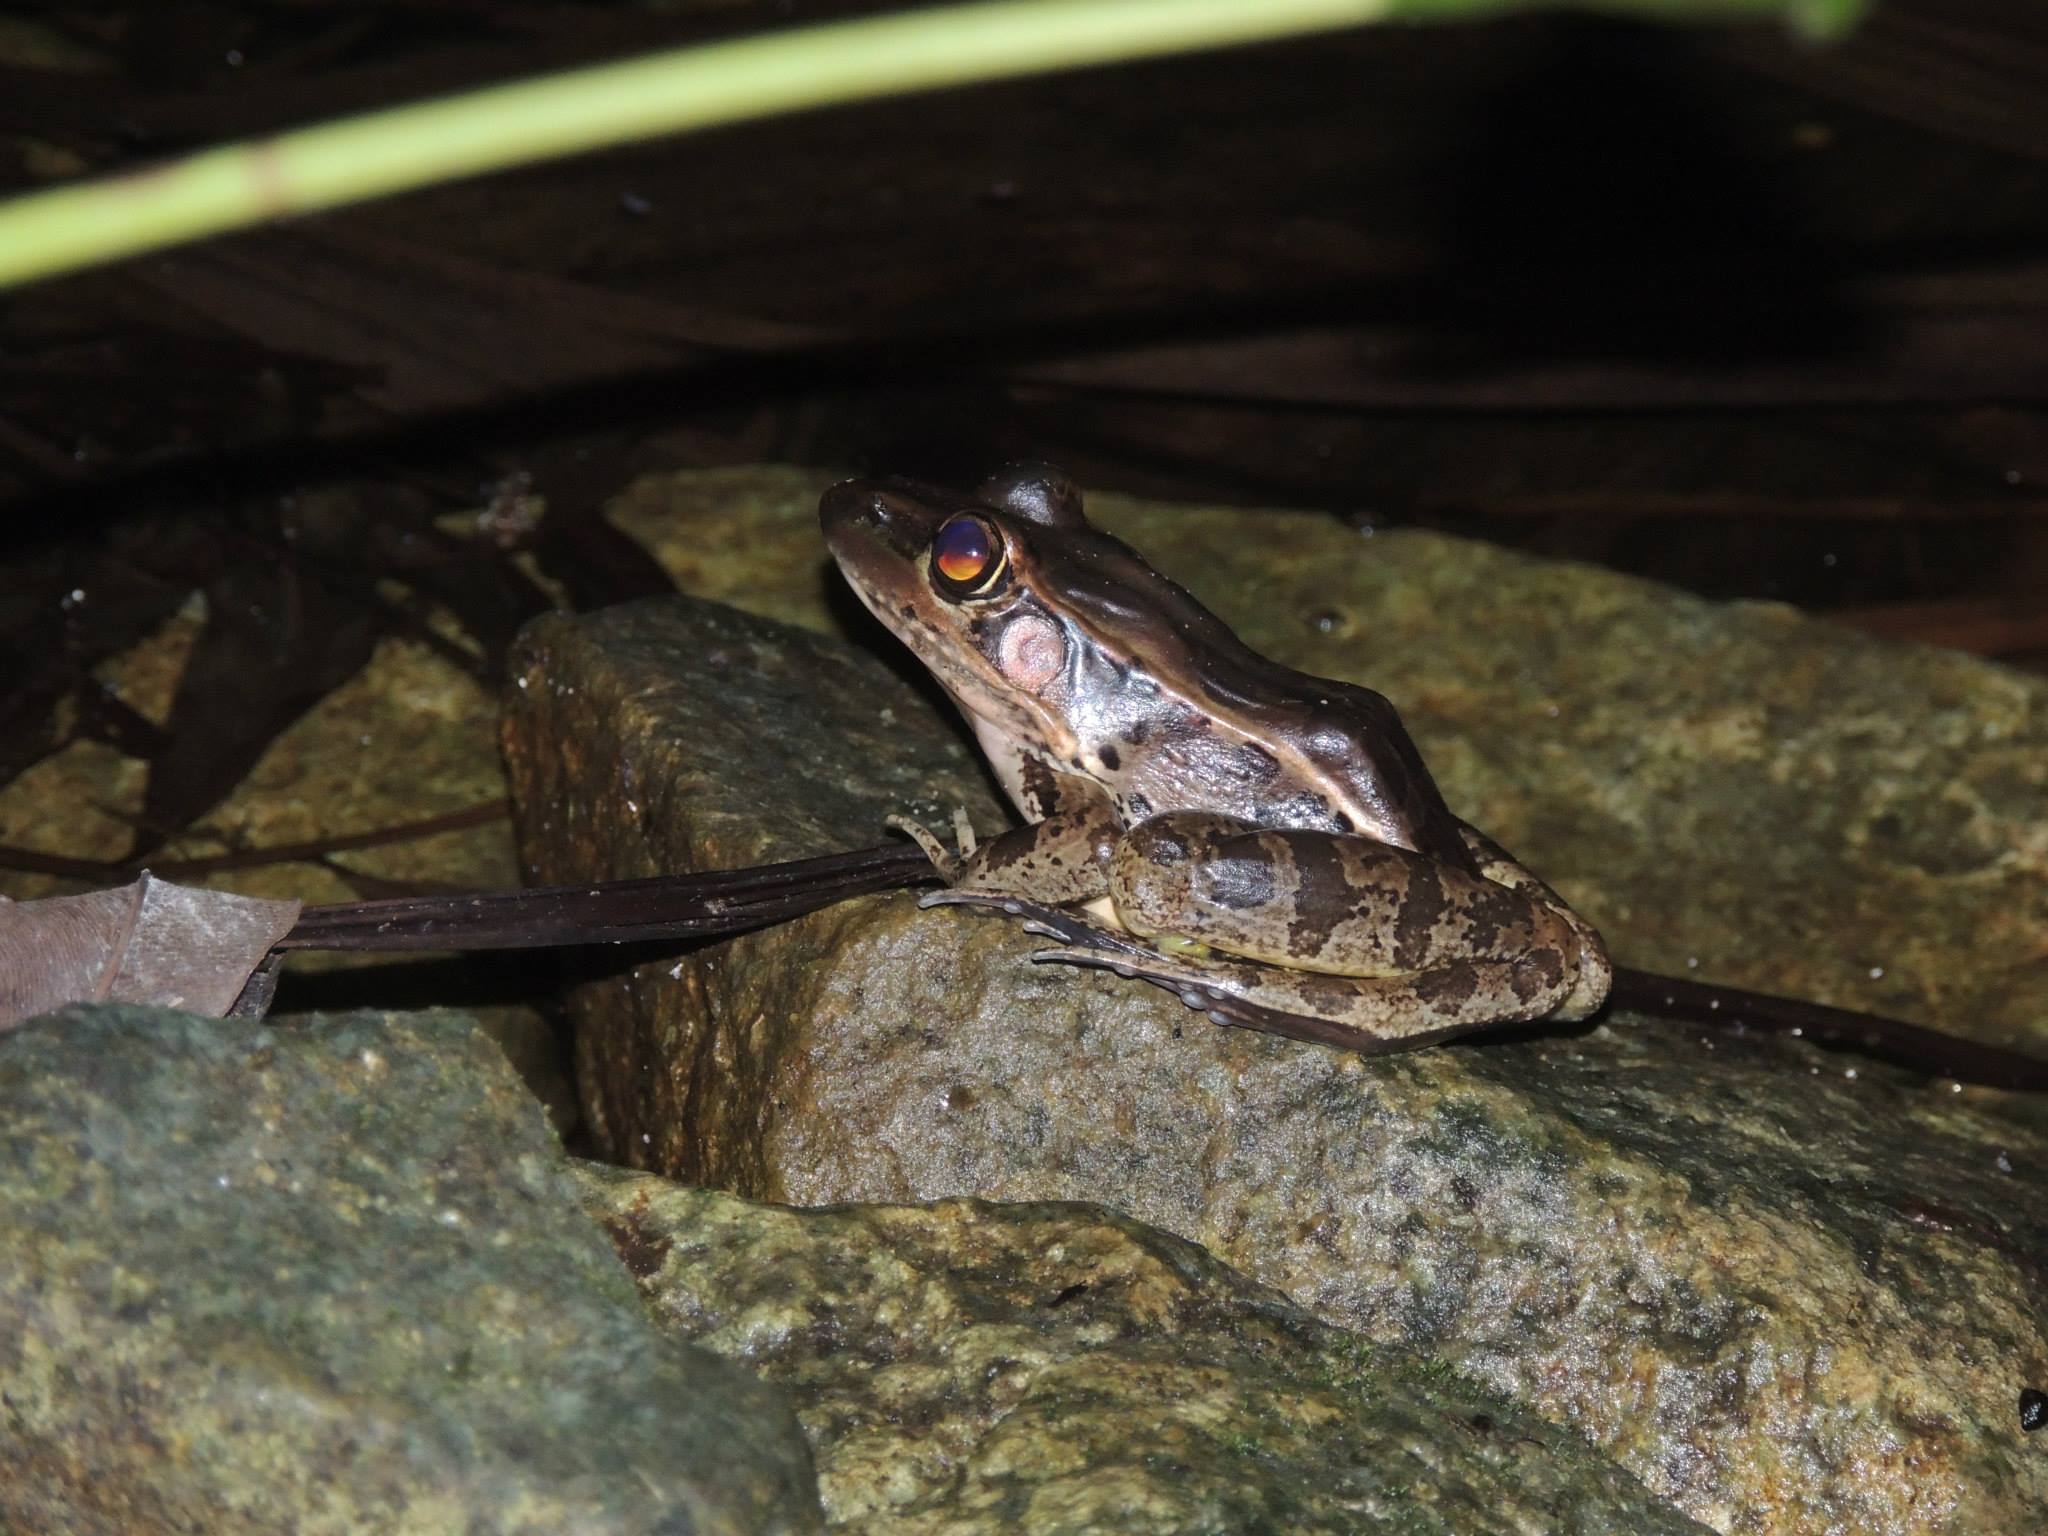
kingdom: Animalia
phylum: Chordata
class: Amphibia
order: Anura
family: Ranidae
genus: Lithobates
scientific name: Lithobates brownorum
